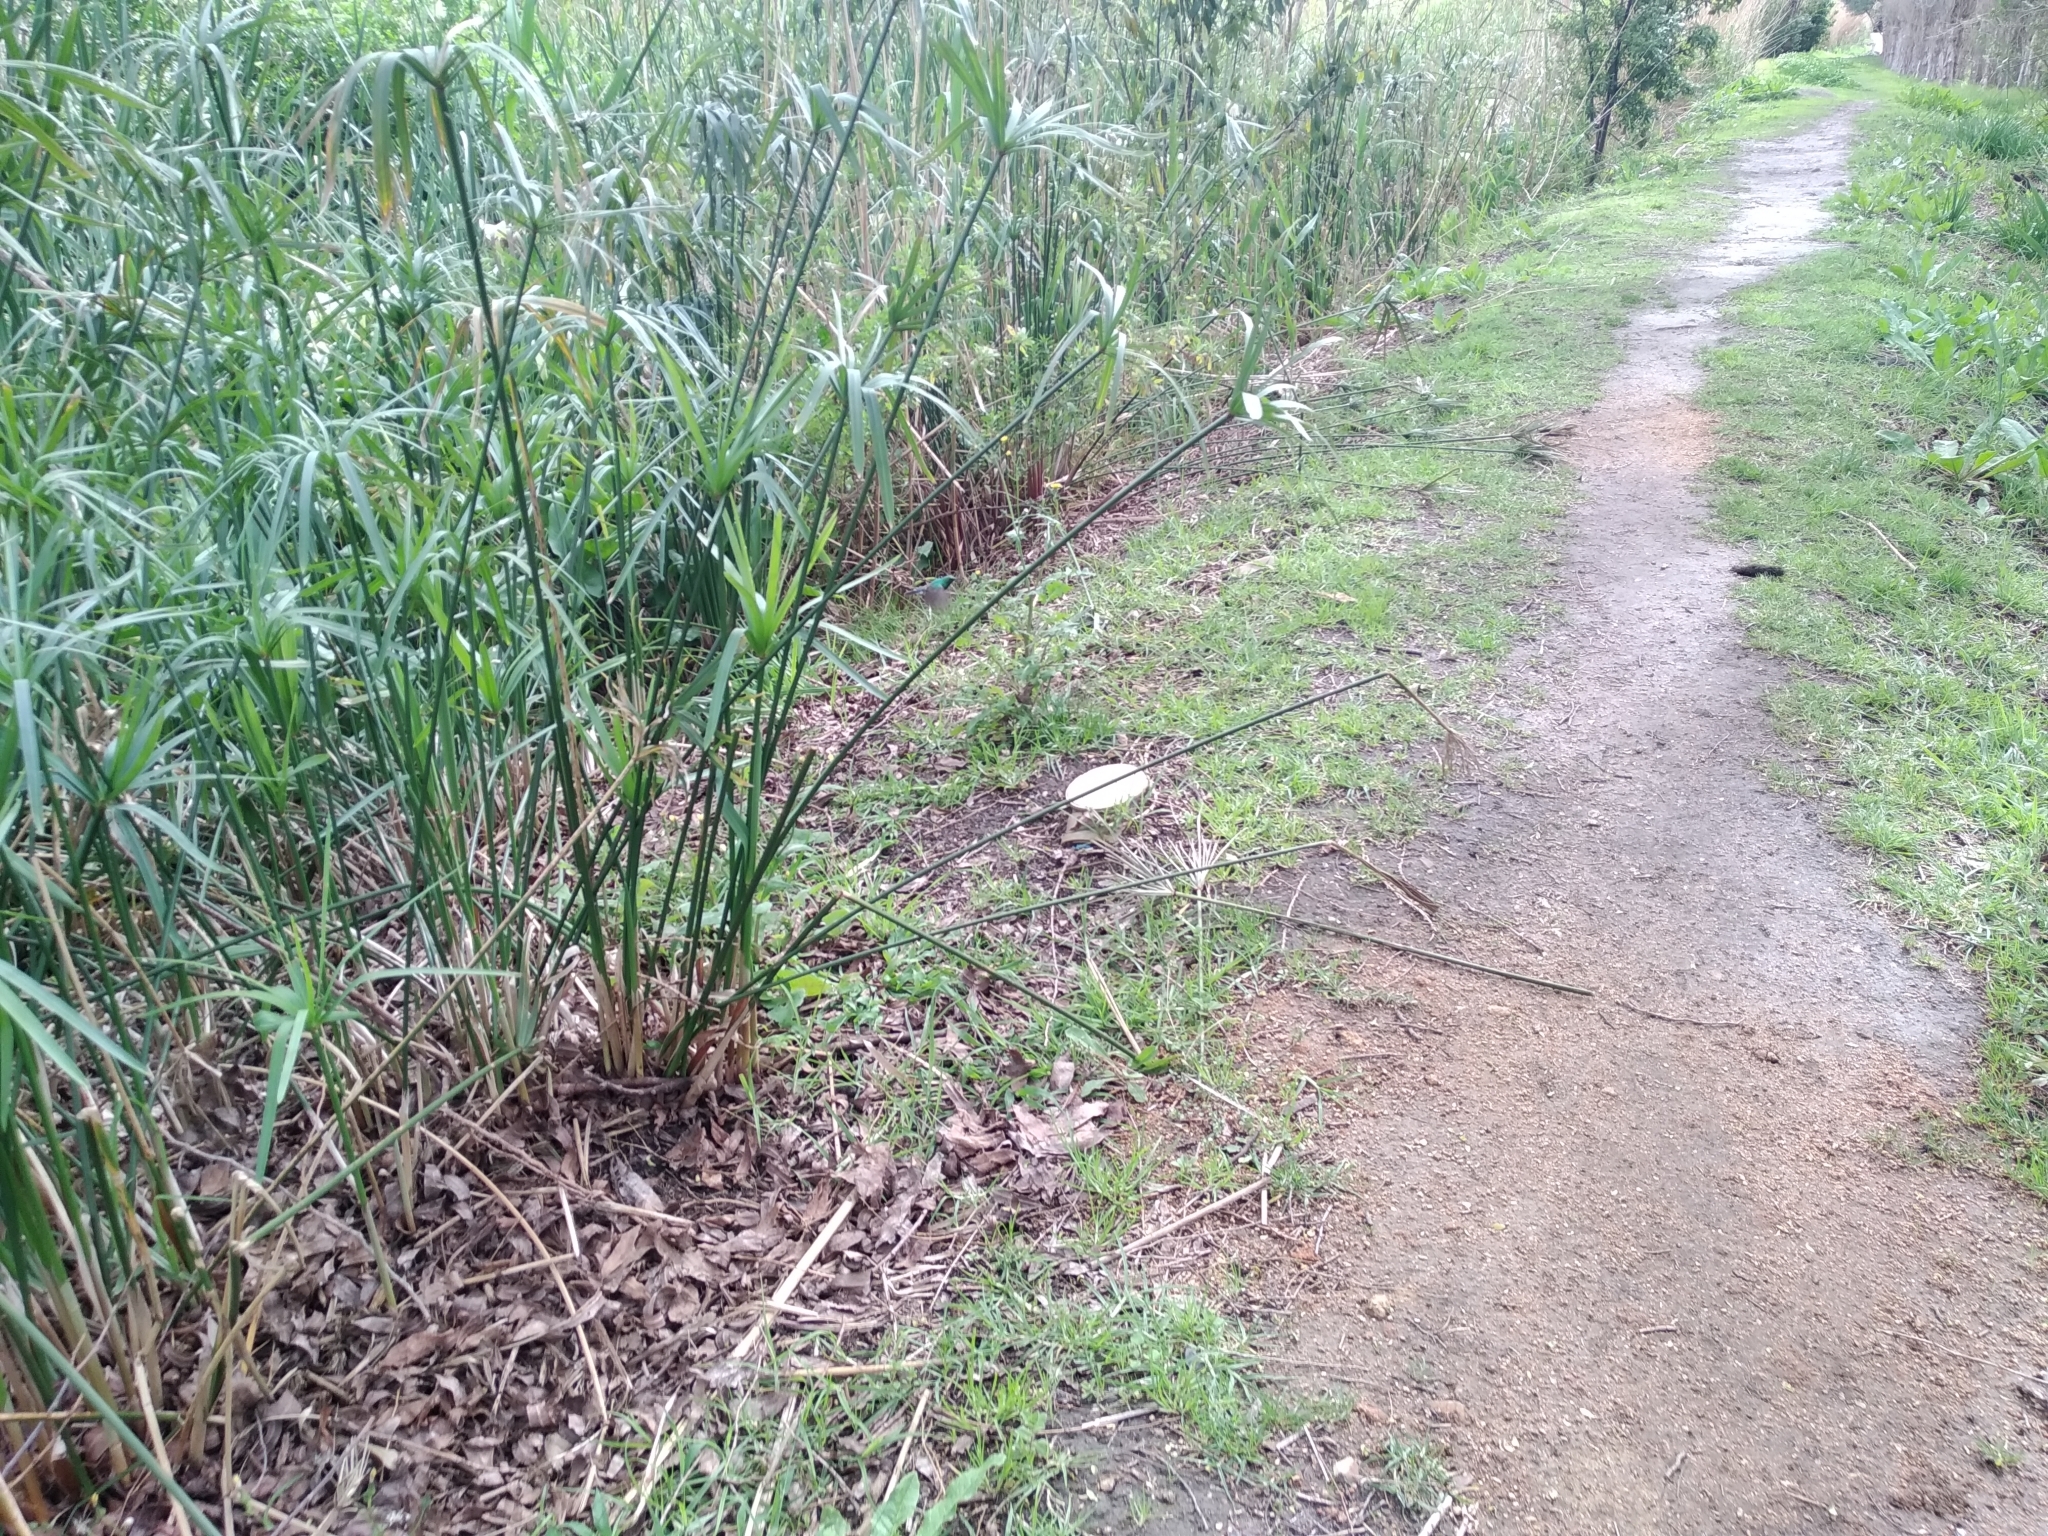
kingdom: Animalia
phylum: Chordata
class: Aves
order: Passeriformes
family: Nectariniidae
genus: Cinnyris
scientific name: Cinnyris chalybeus
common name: Southern double-collared sunbird
